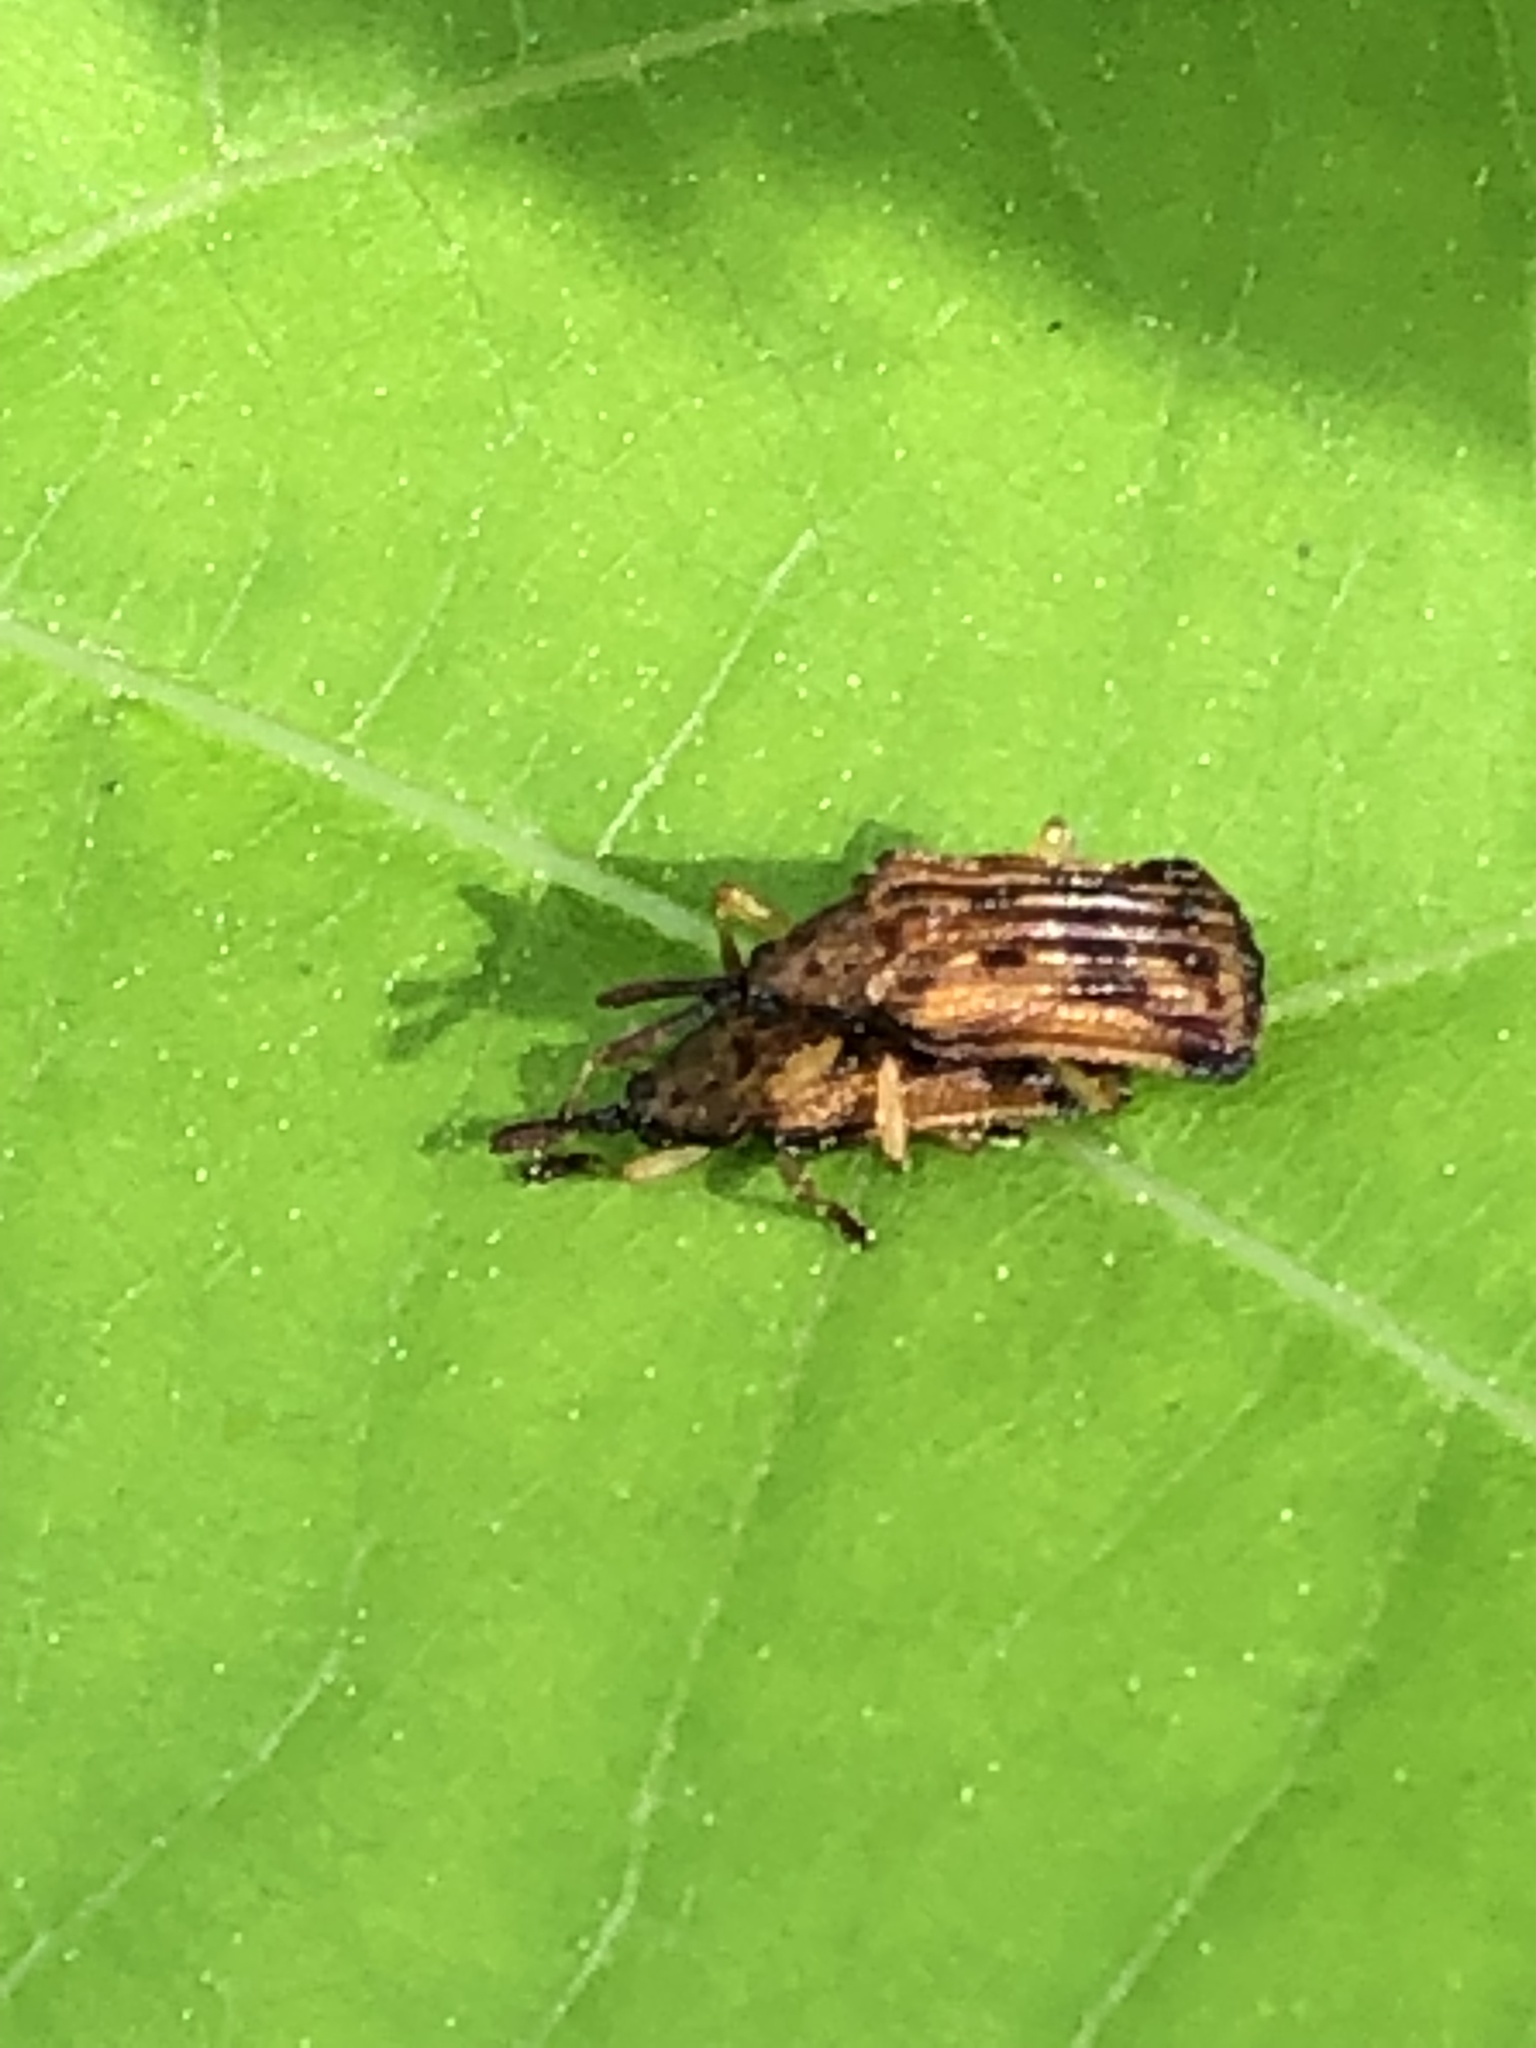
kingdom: Animalia
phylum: Arthropoda
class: Insecta
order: Coleoptera
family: Chrysomelidae
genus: Baliosus
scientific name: Baliosus nervosus
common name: Basswood leaf miner
